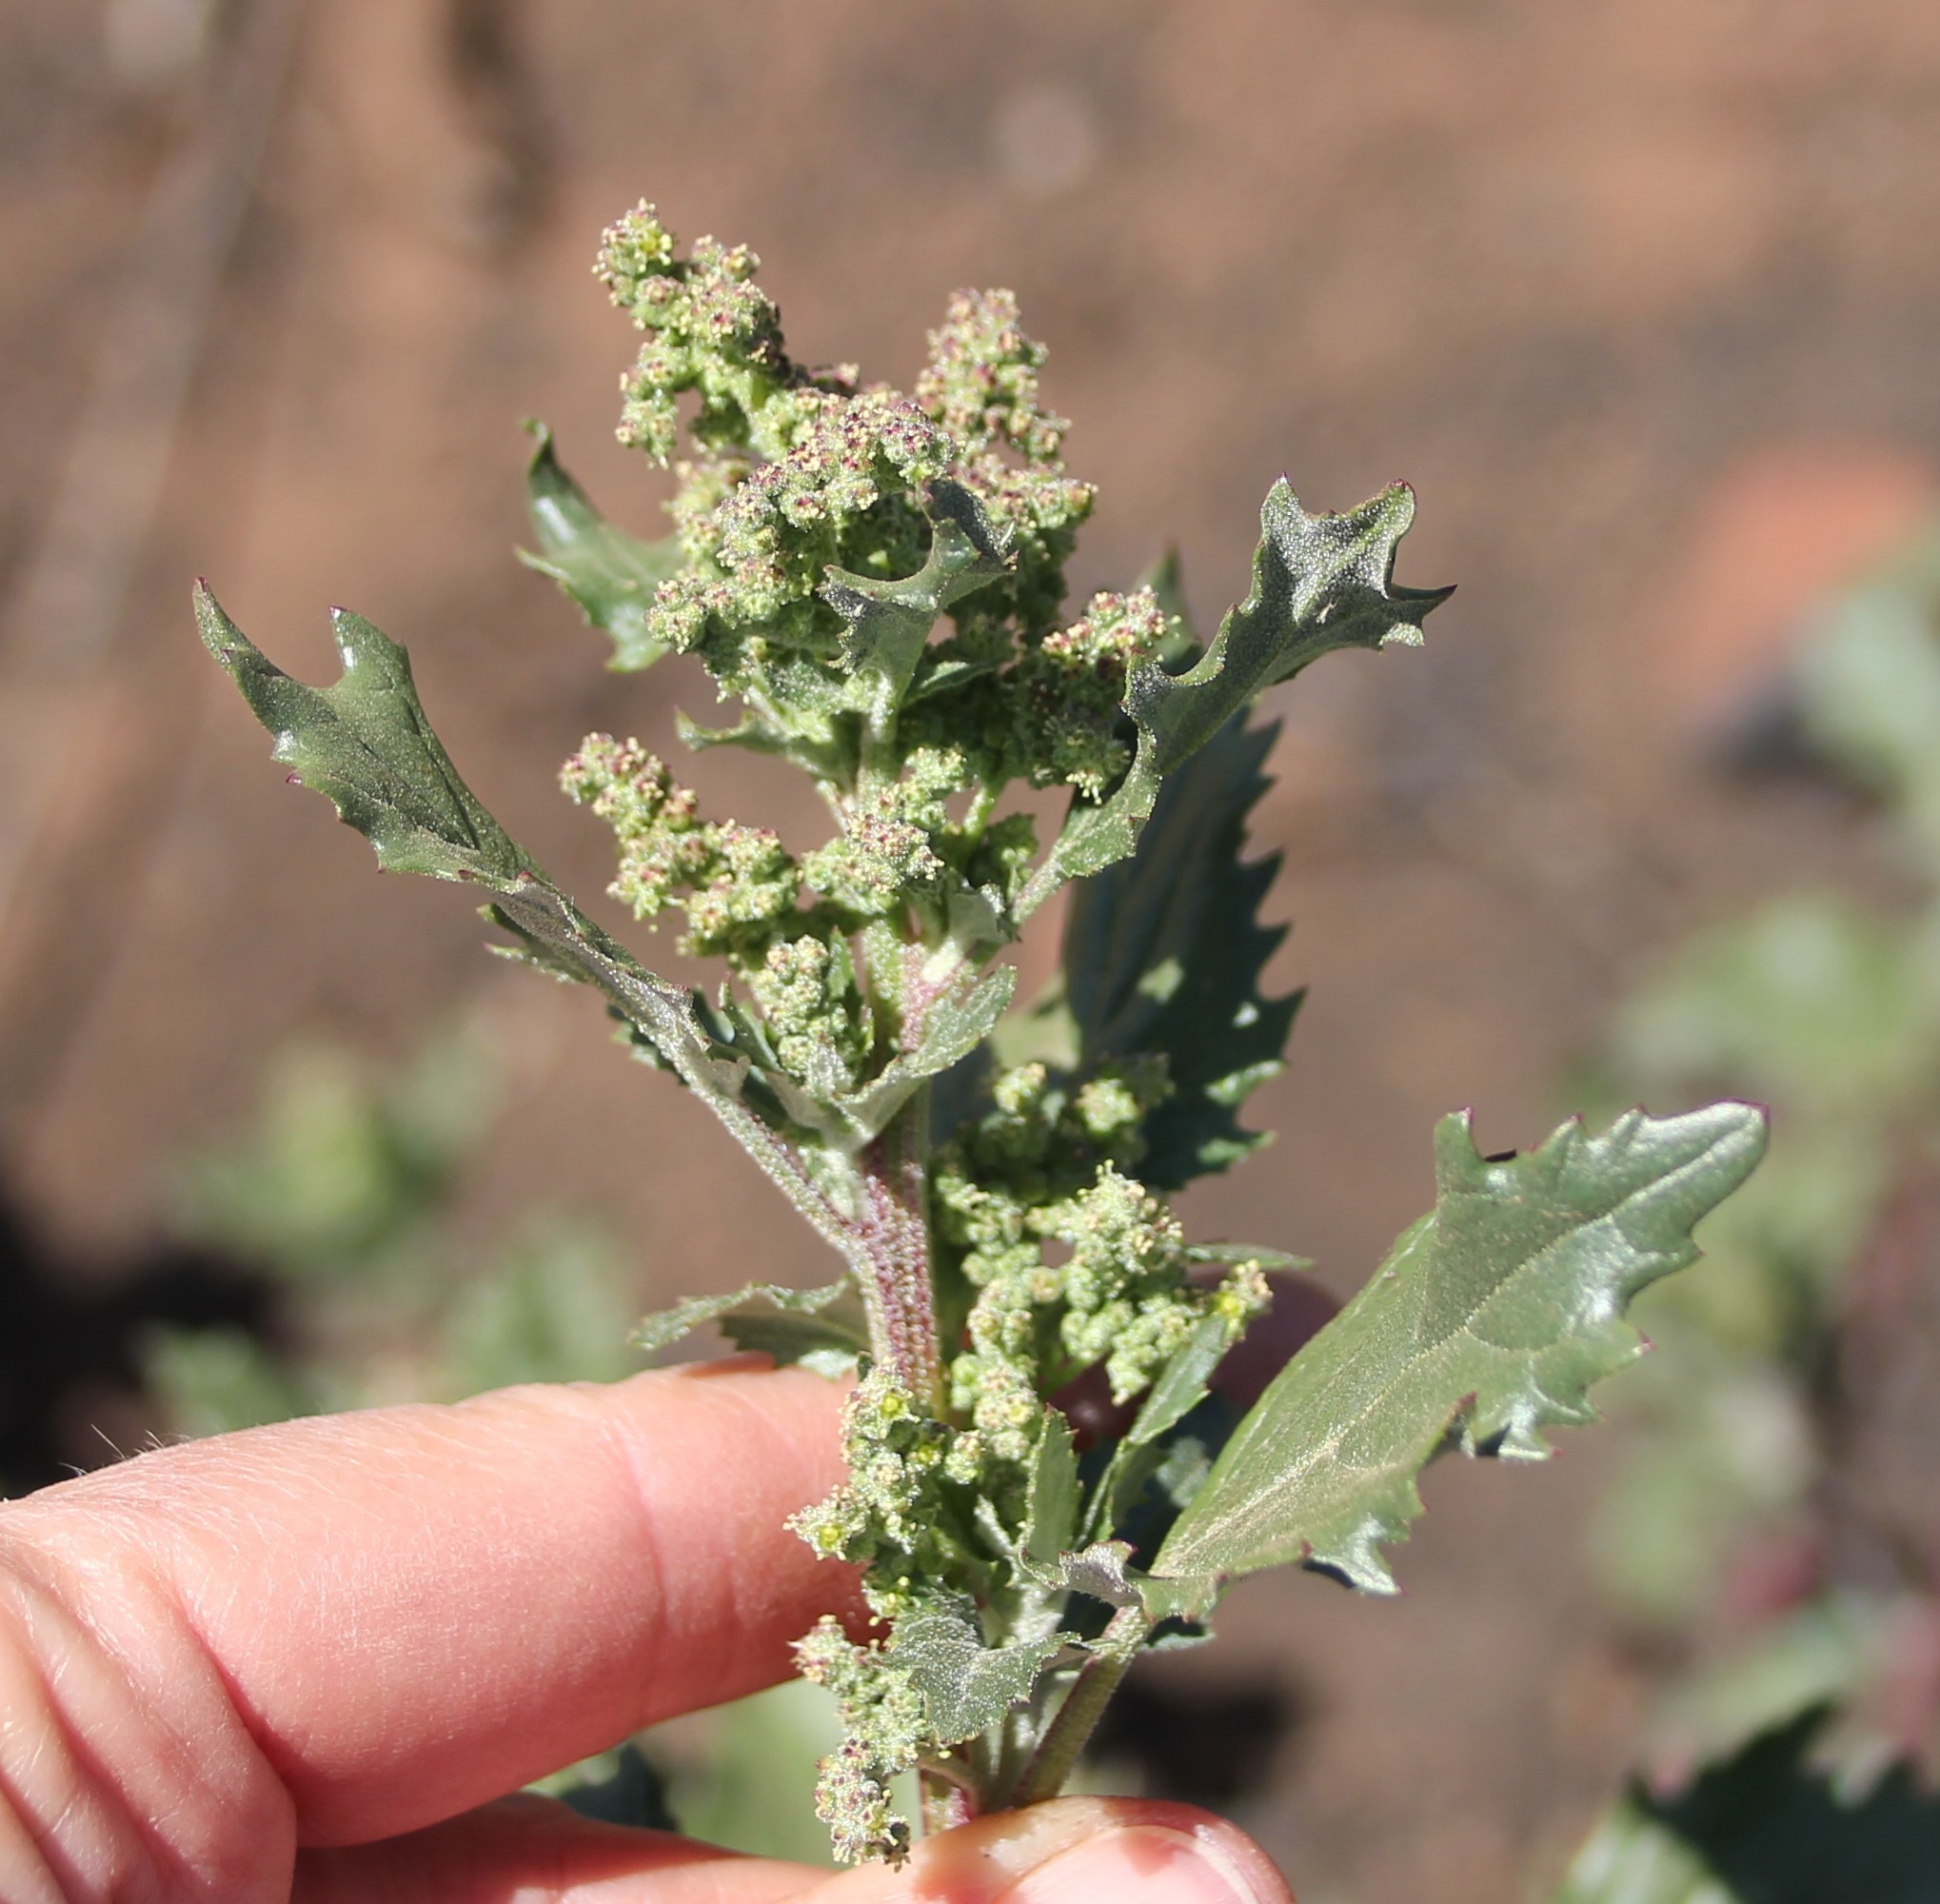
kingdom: Plantae
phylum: Tracheophyta
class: Magnoliopsida
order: Caryophyllales
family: Amaranthaceae
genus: Chenopodiastrum
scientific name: Chenopodiastrum murale
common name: Sowbane
